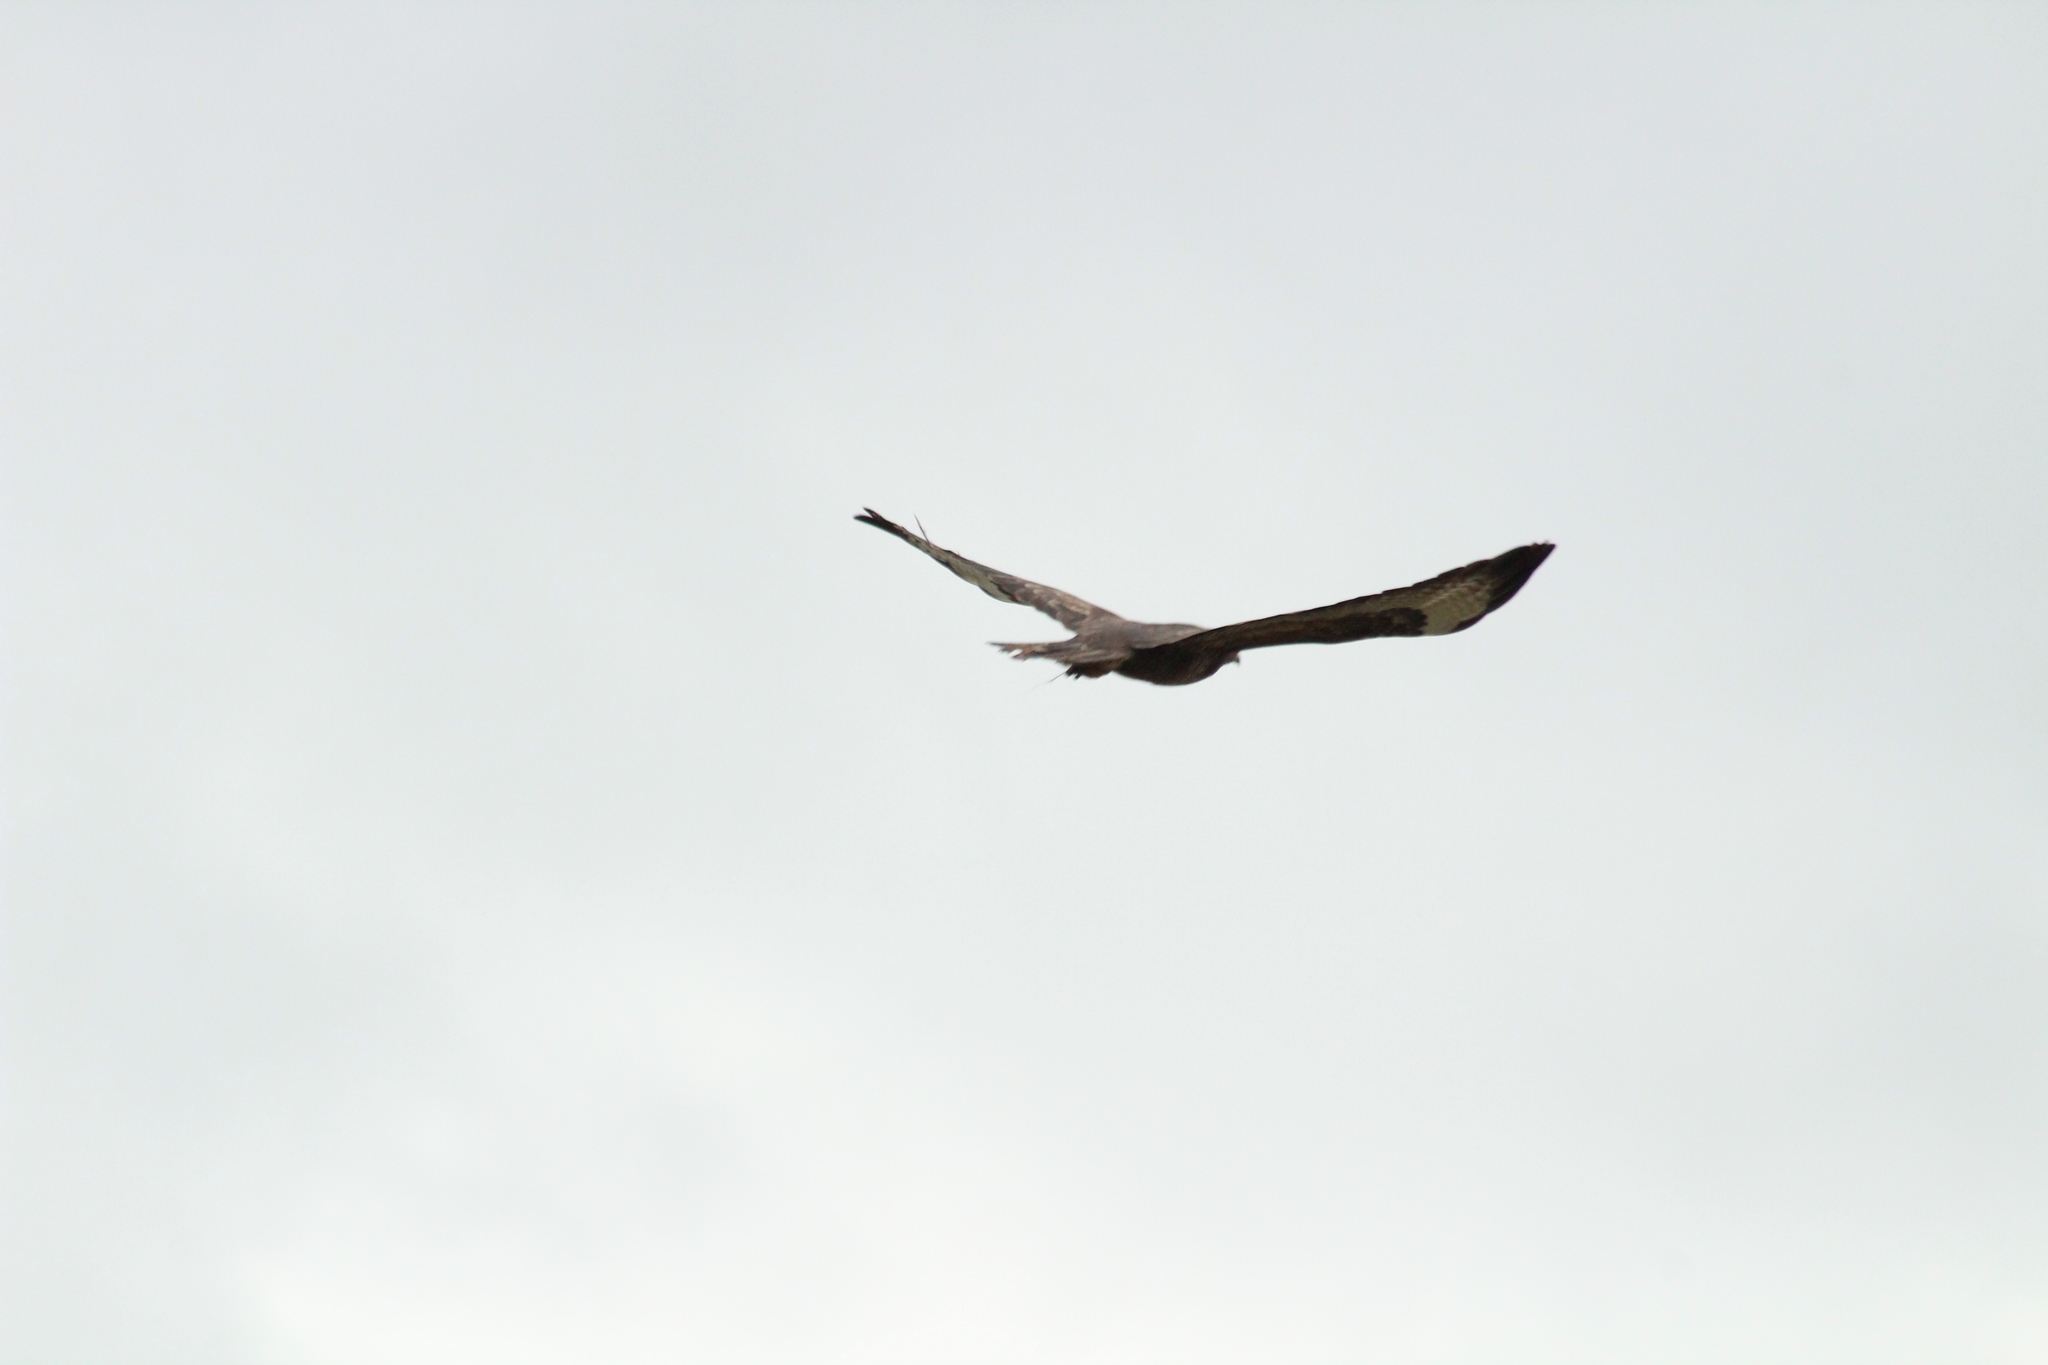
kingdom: Animalia
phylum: Chordata
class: Aves
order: Accipitriformes
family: Accipitridae
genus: Buteo
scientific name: Buteo buteo
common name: Common buzzard
